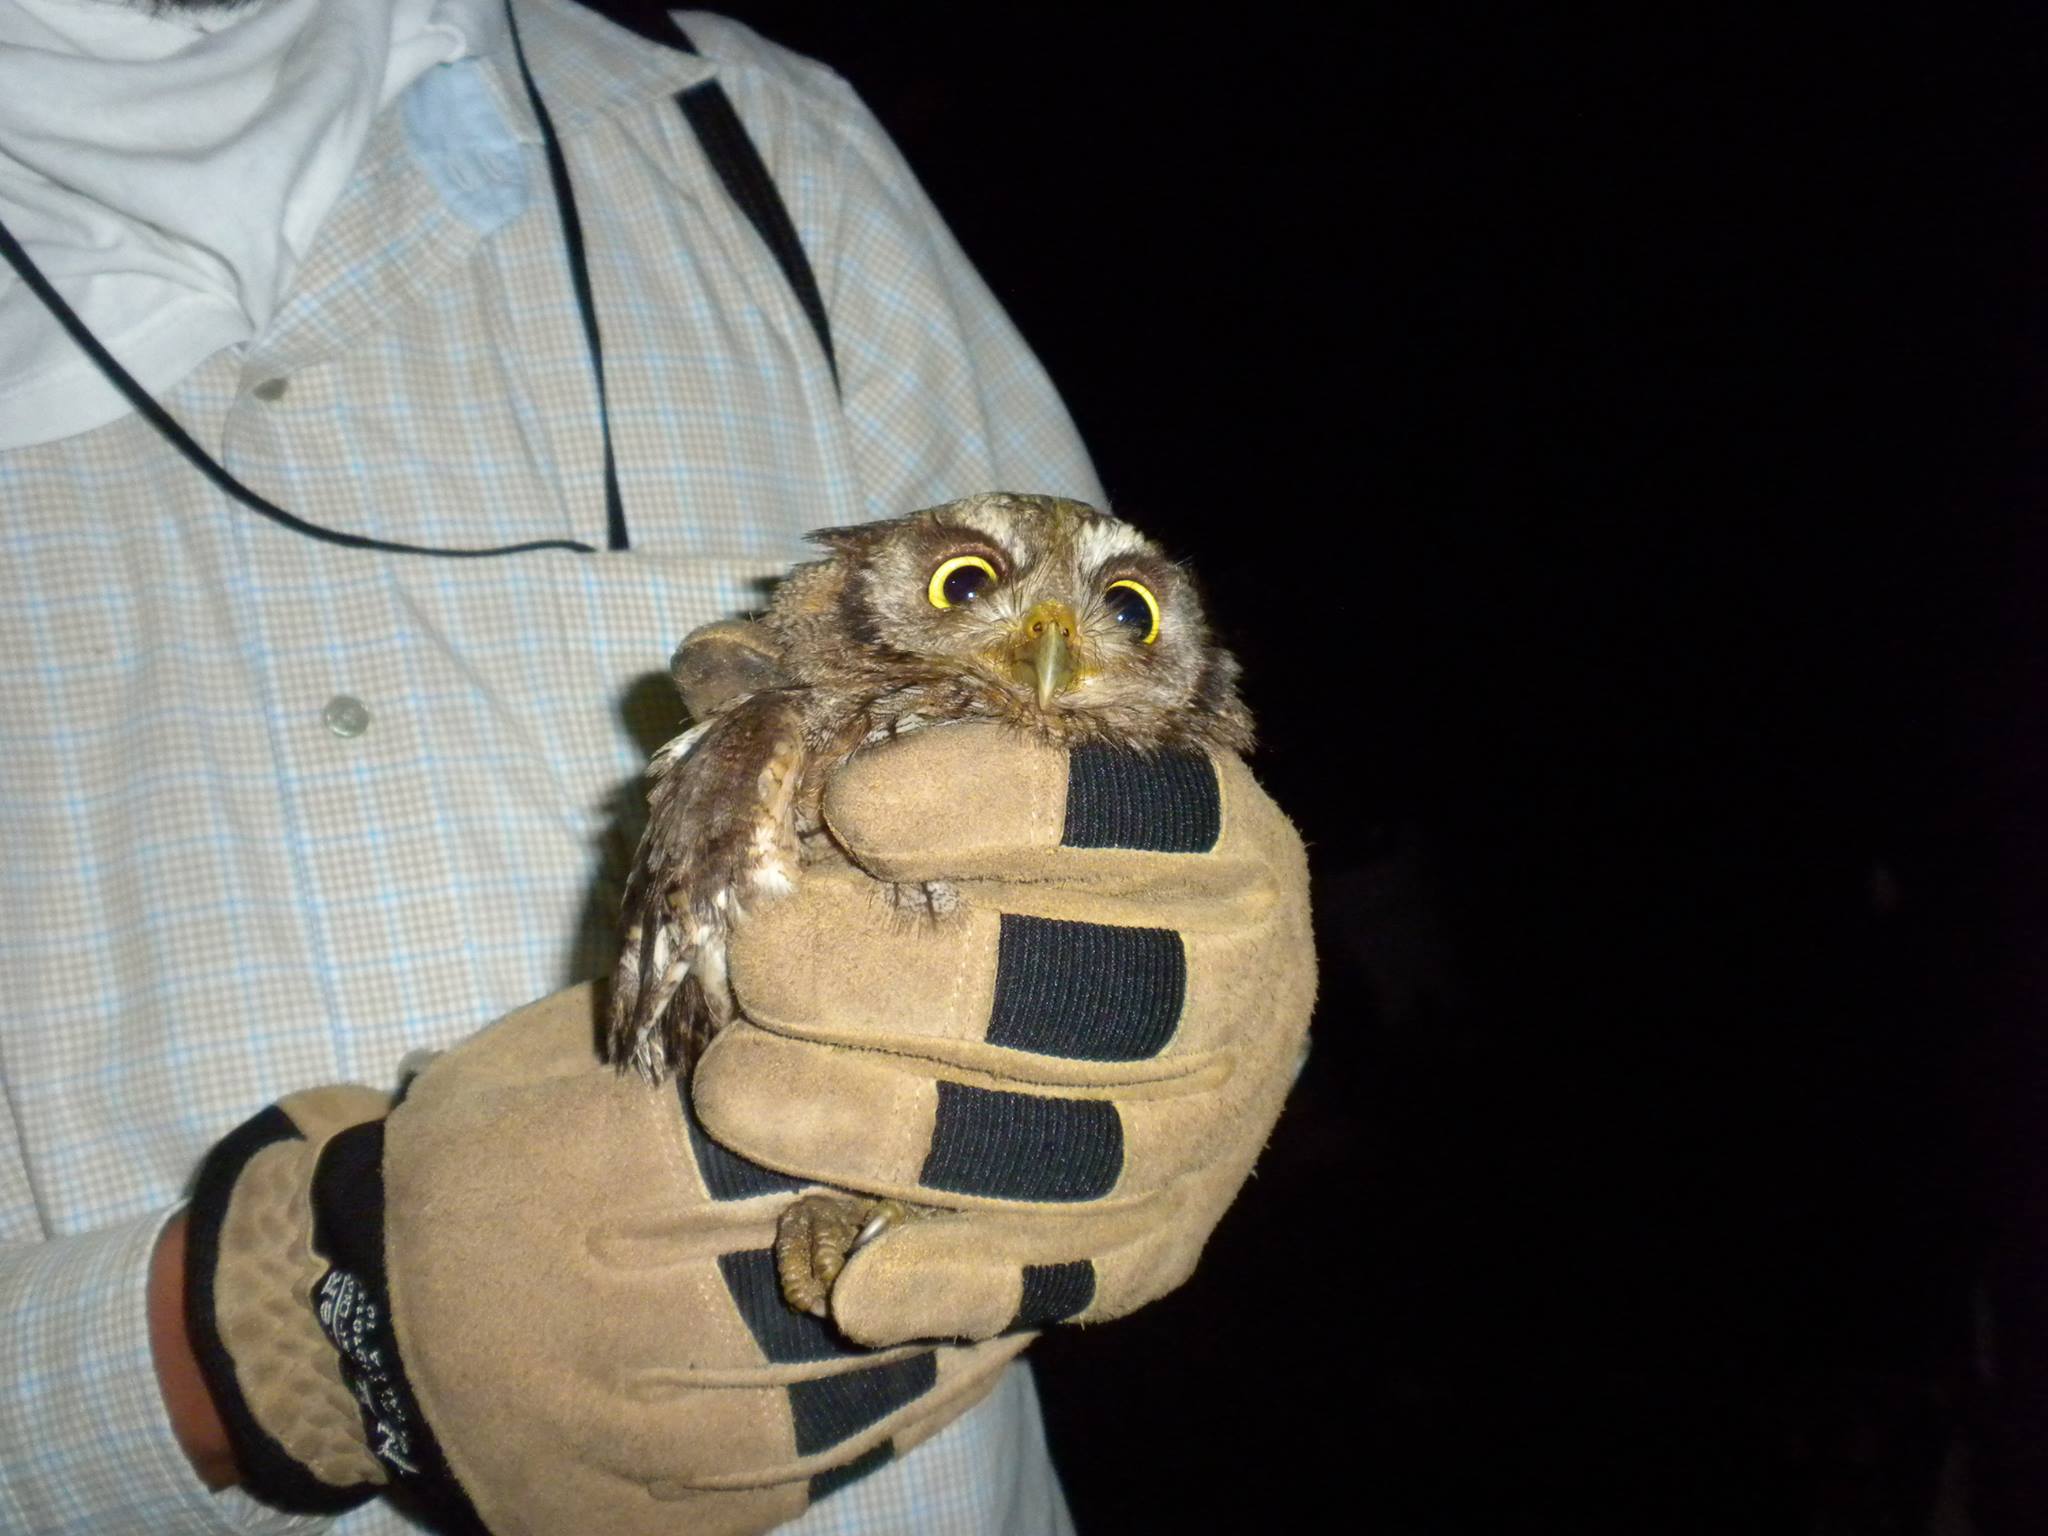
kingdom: Animalia
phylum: Chordata
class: Aves
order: Strigiformes
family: Strigidae
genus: Megascops
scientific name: Megascops choliba
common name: Tropical screech-owl
